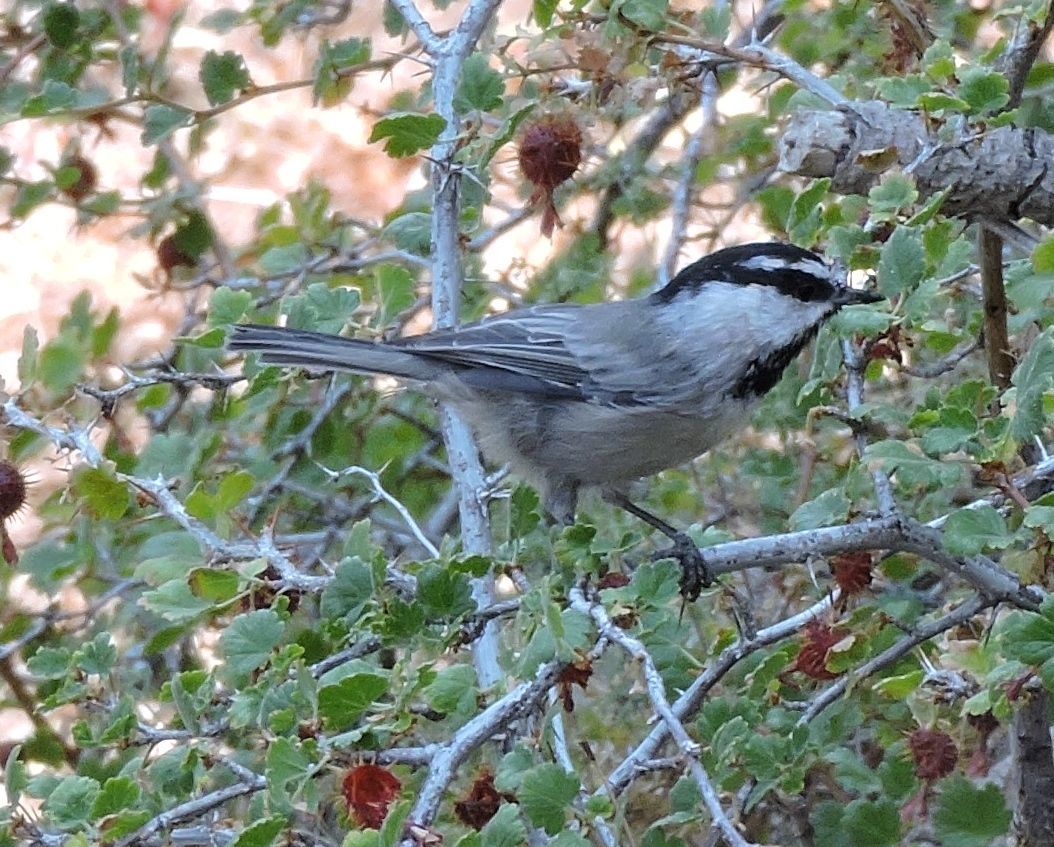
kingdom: Animalia
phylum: Chordata
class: Aves
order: Passeriformes
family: Paridae
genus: Poecile
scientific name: Poecile gambeli
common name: Mountain chickadee
